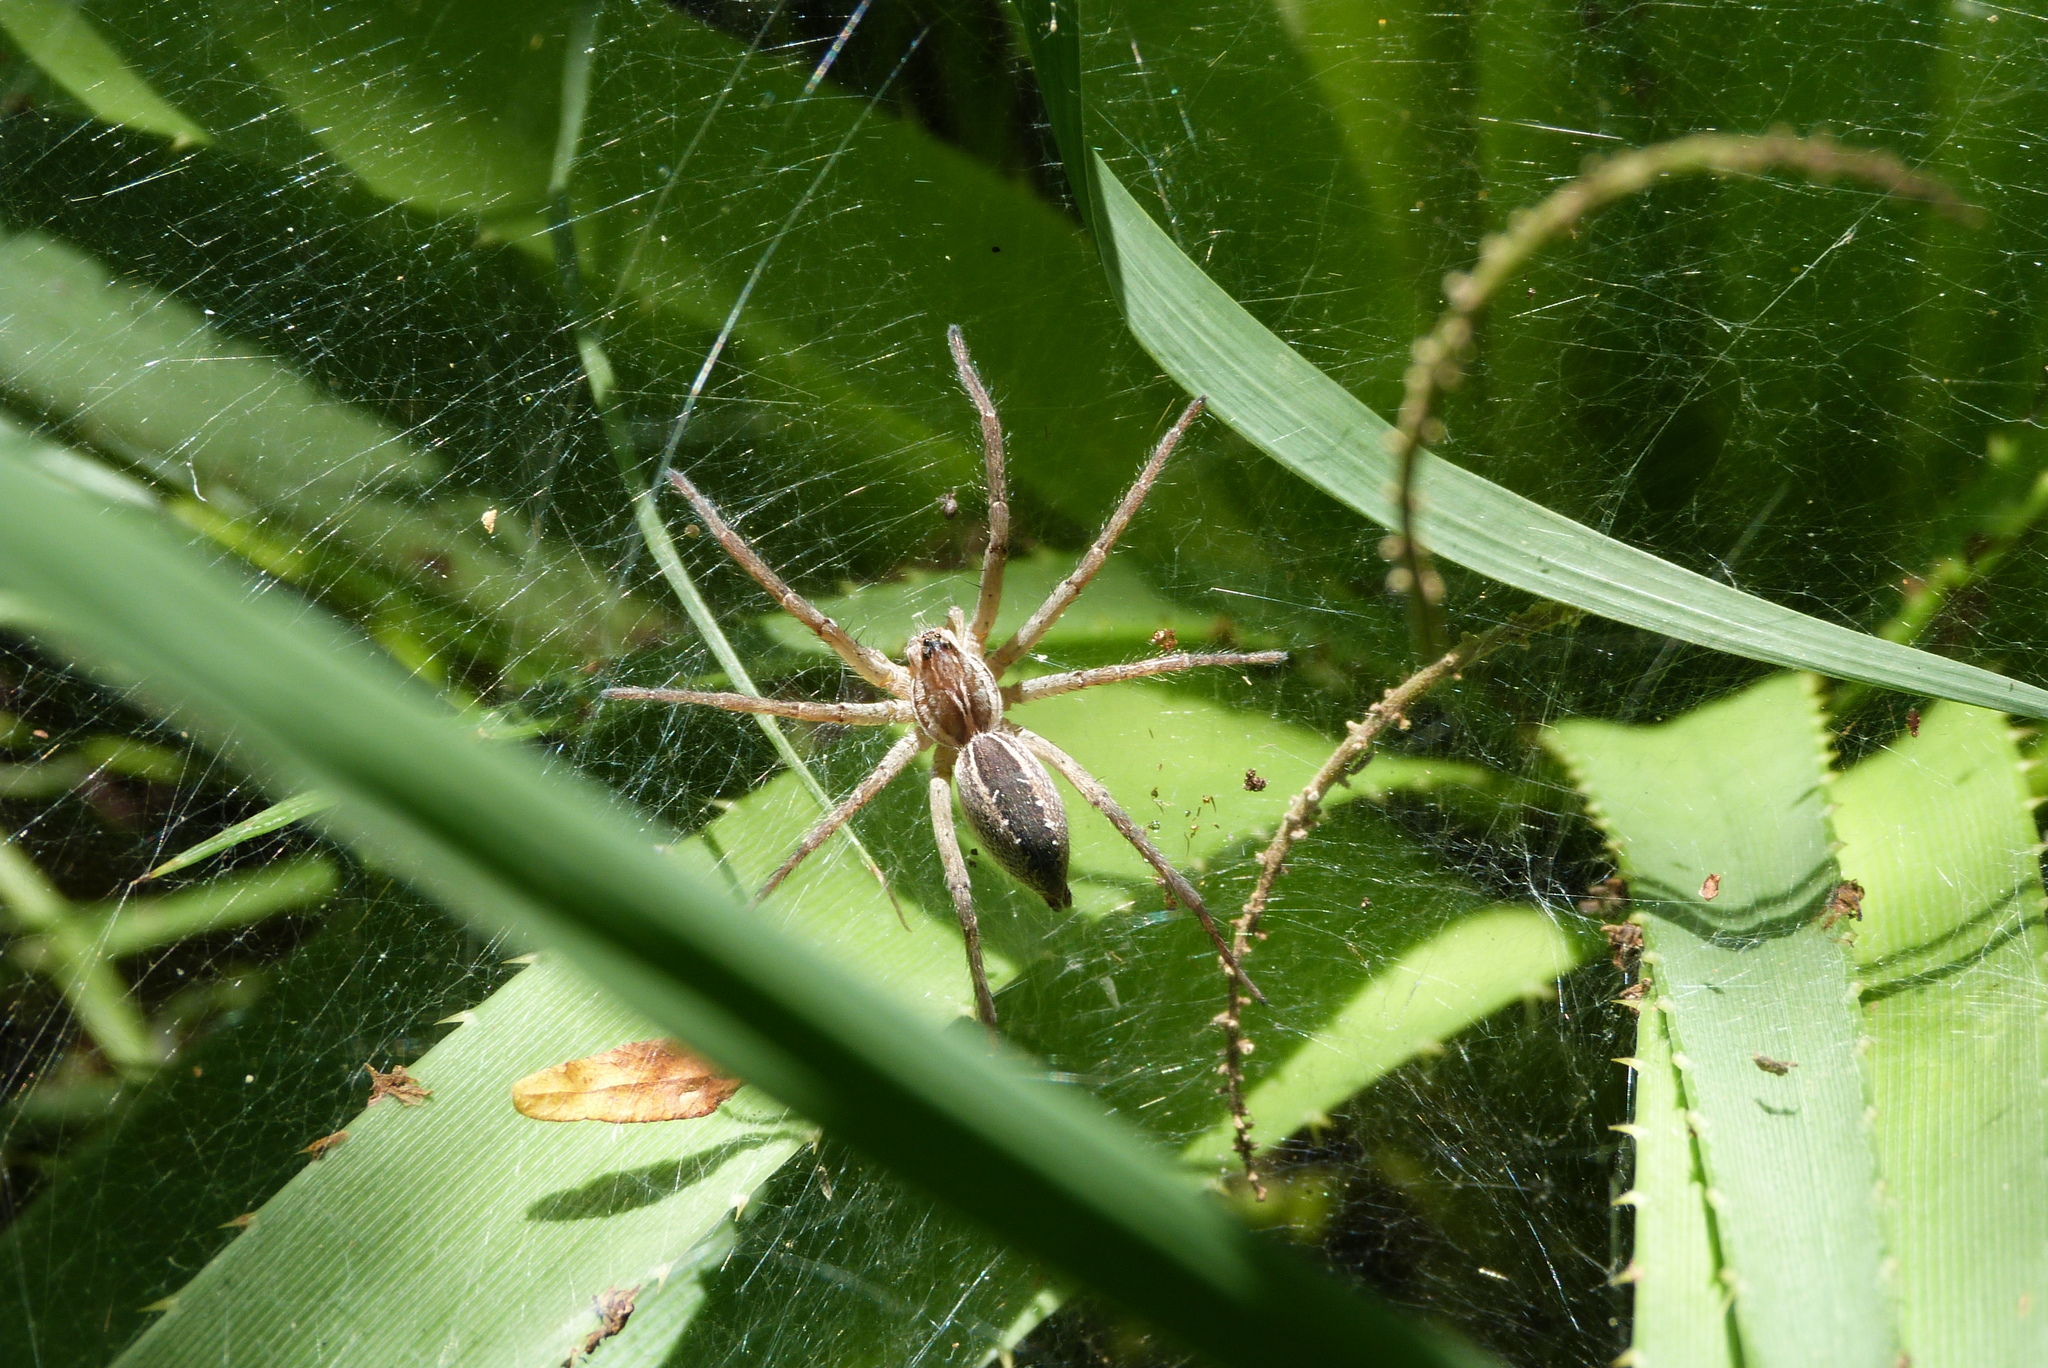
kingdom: Animalia
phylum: Arthropoda
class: Arachnida
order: Araneae
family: Lycosidae
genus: Aglaoctenus
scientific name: Aglaoctenus lagotis
